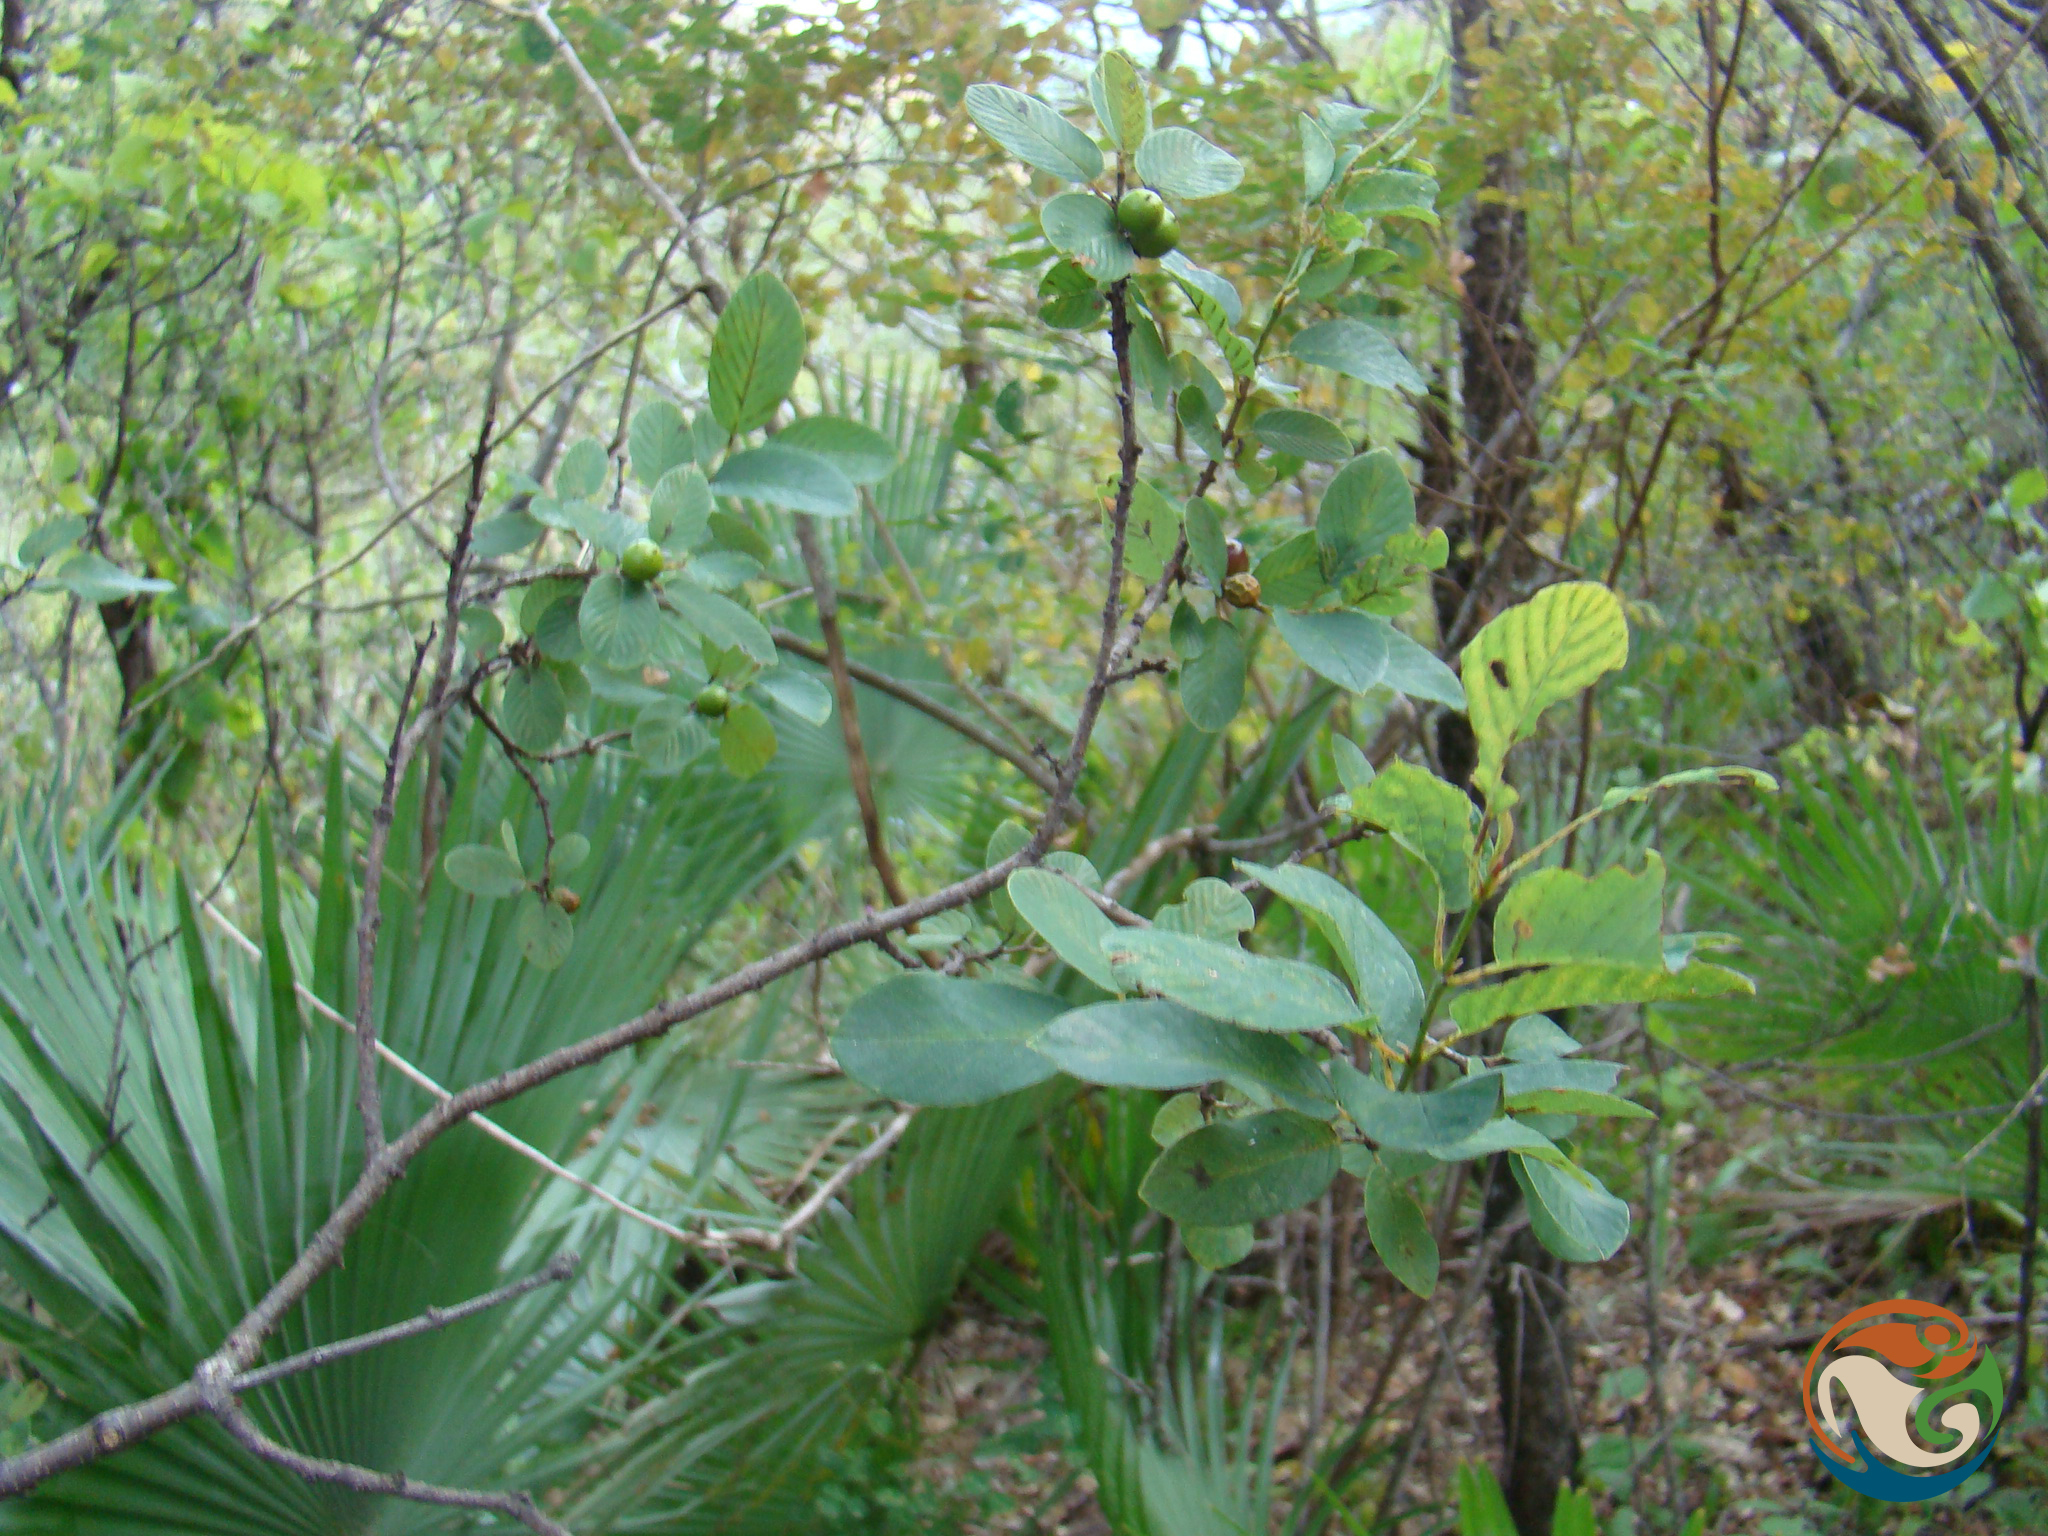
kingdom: Plantae
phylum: Tracheophyta
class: Magnoliopsida
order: Rosales
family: Rhamnaceae
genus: Karwinskia
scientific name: Karwinskia humboldtiana
